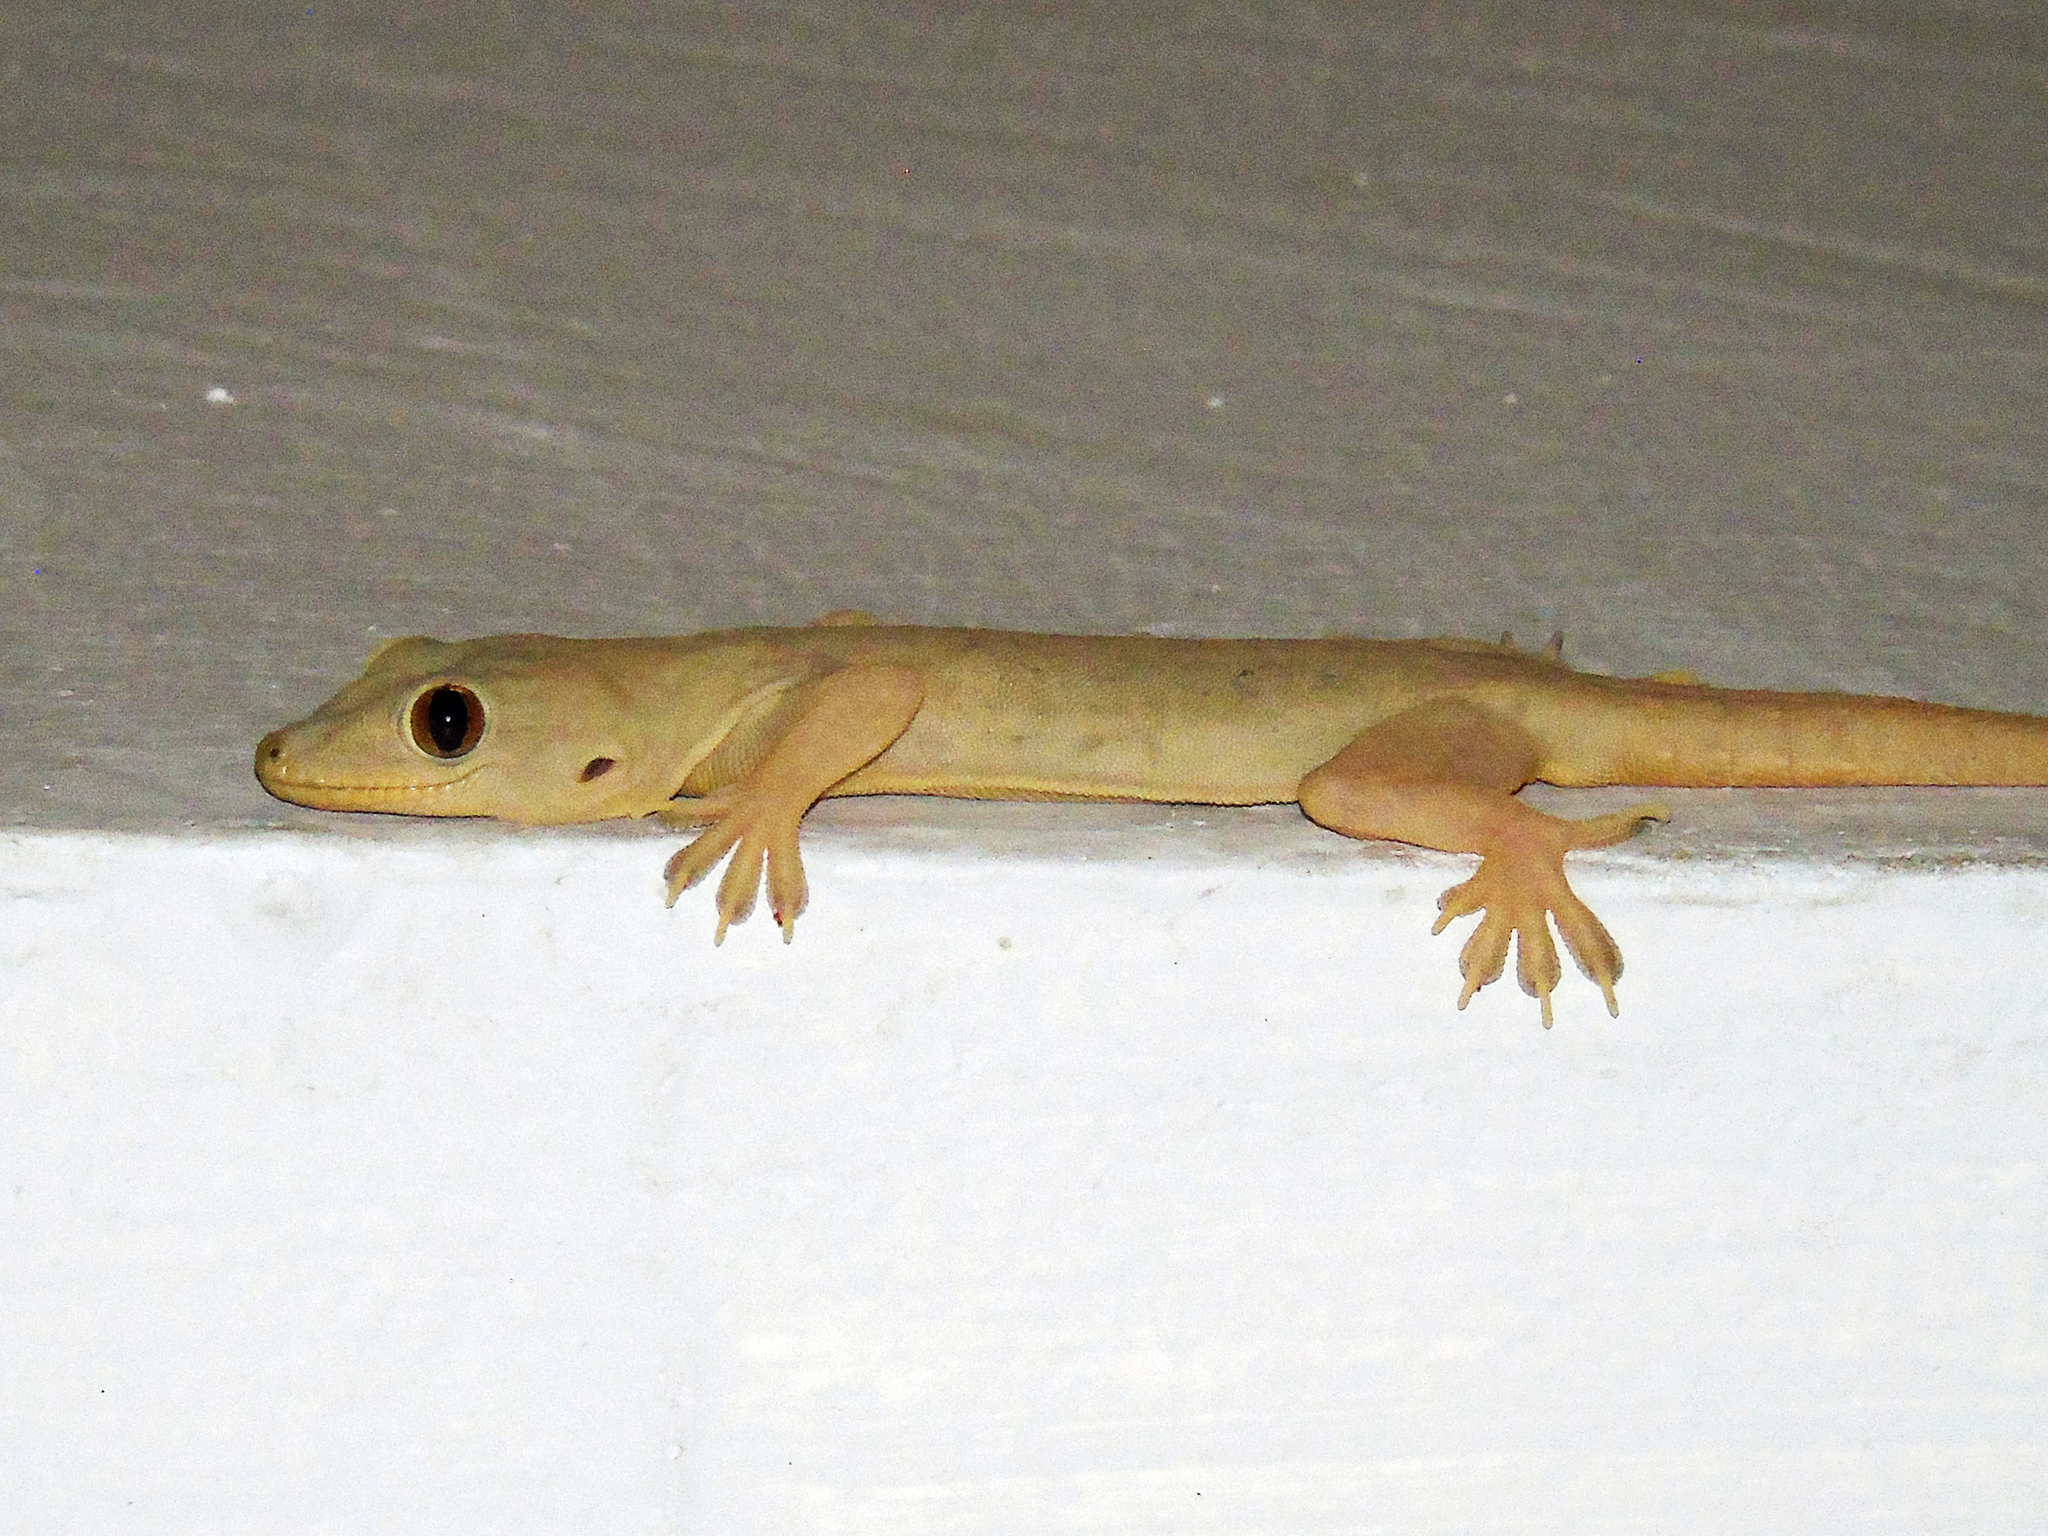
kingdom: Animalia
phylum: Chordata
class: Squamata
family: Gekkonidae
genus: Hemidactylus
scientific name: Hemidactylus flaviviridis
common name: Northern house gecko
